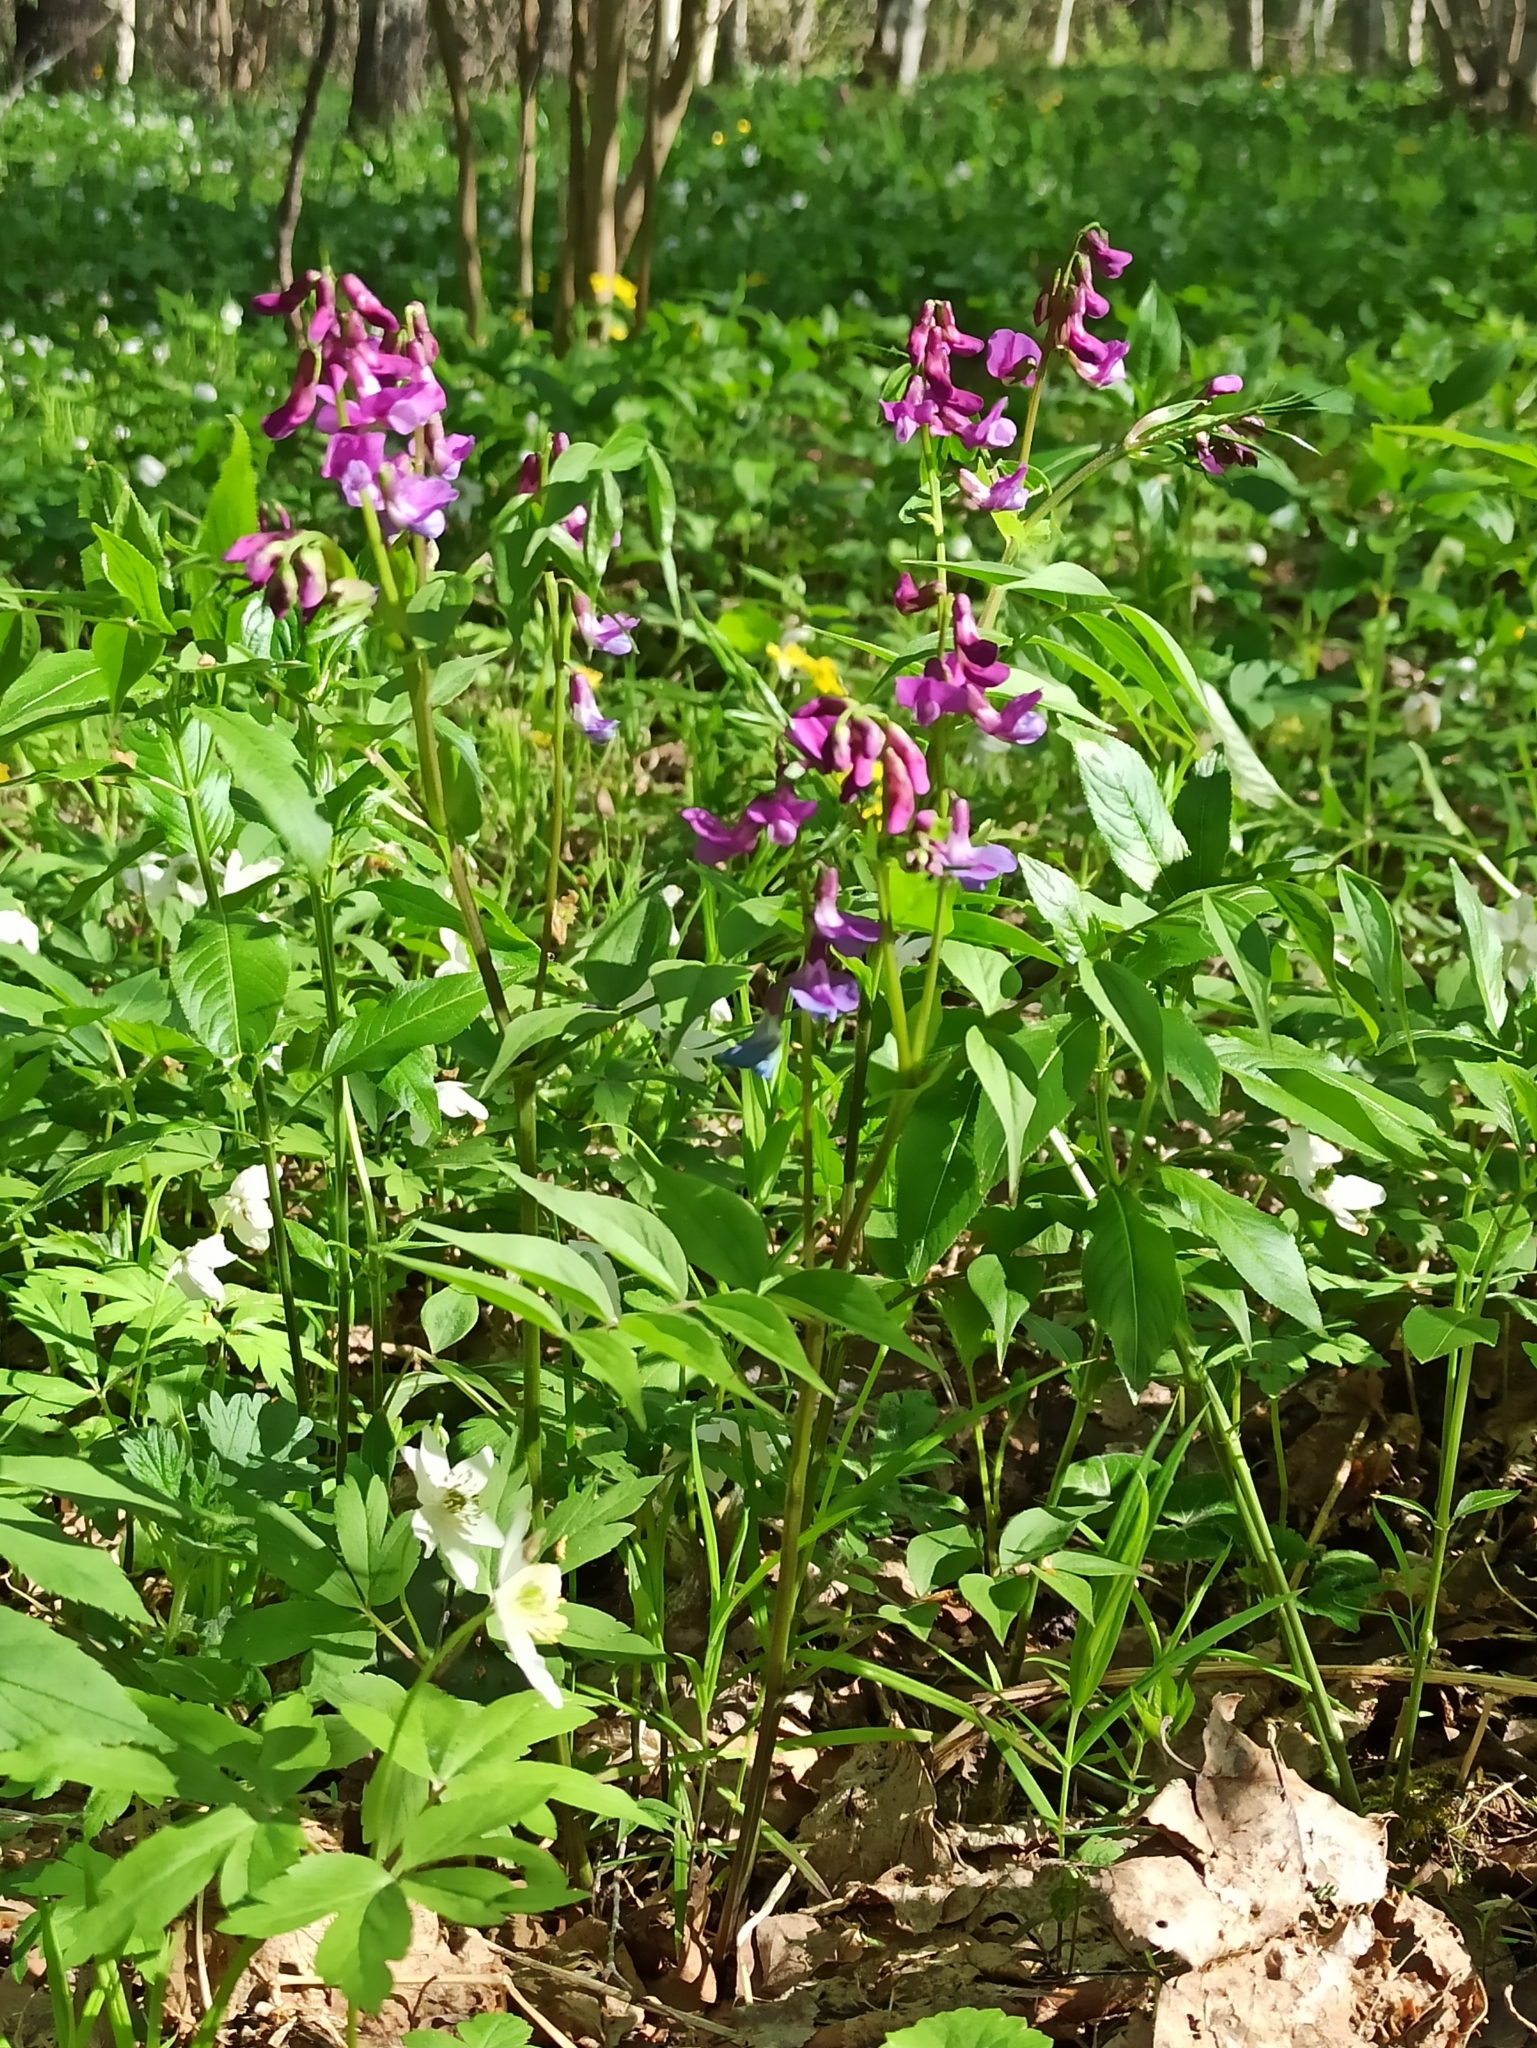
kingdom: Plantae
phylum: Tracheophyta
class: Magnoliopsida
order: Fabales
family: Fabaceae
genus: Lathyrus
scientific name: Lathyrus vernus
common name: Spring pea
